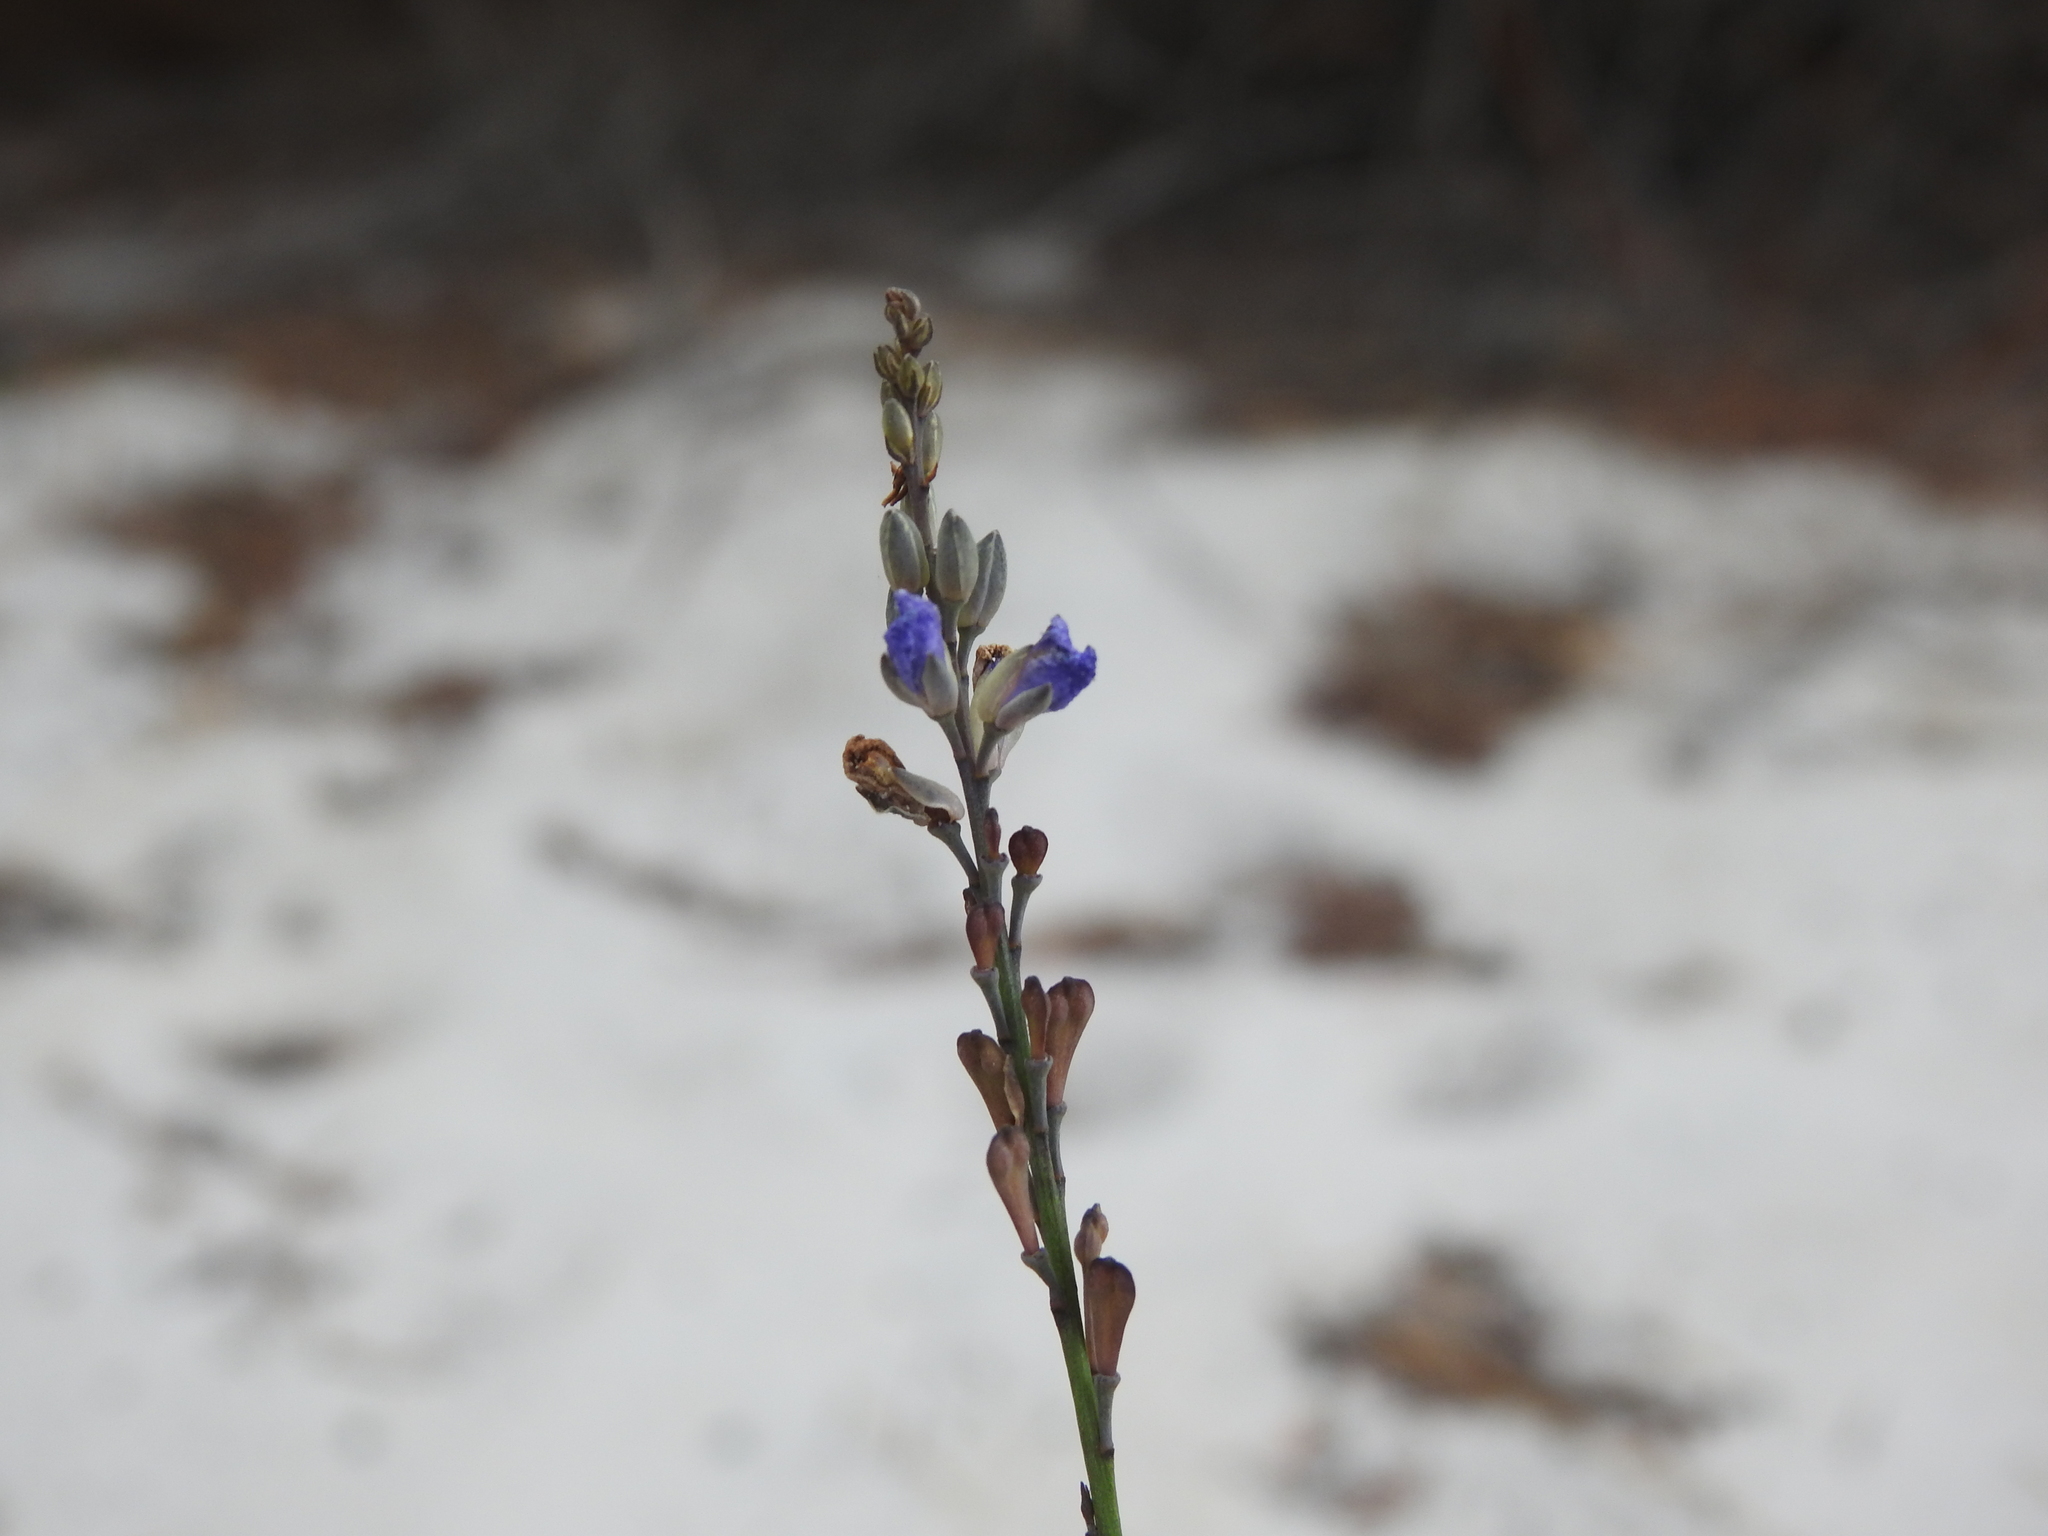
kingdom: Plantae
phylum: Tracheophyta
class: Magnoliopsida
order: Fabales
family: Polygalaceae
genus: Comesperma
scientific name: Comesperma defoliatum
